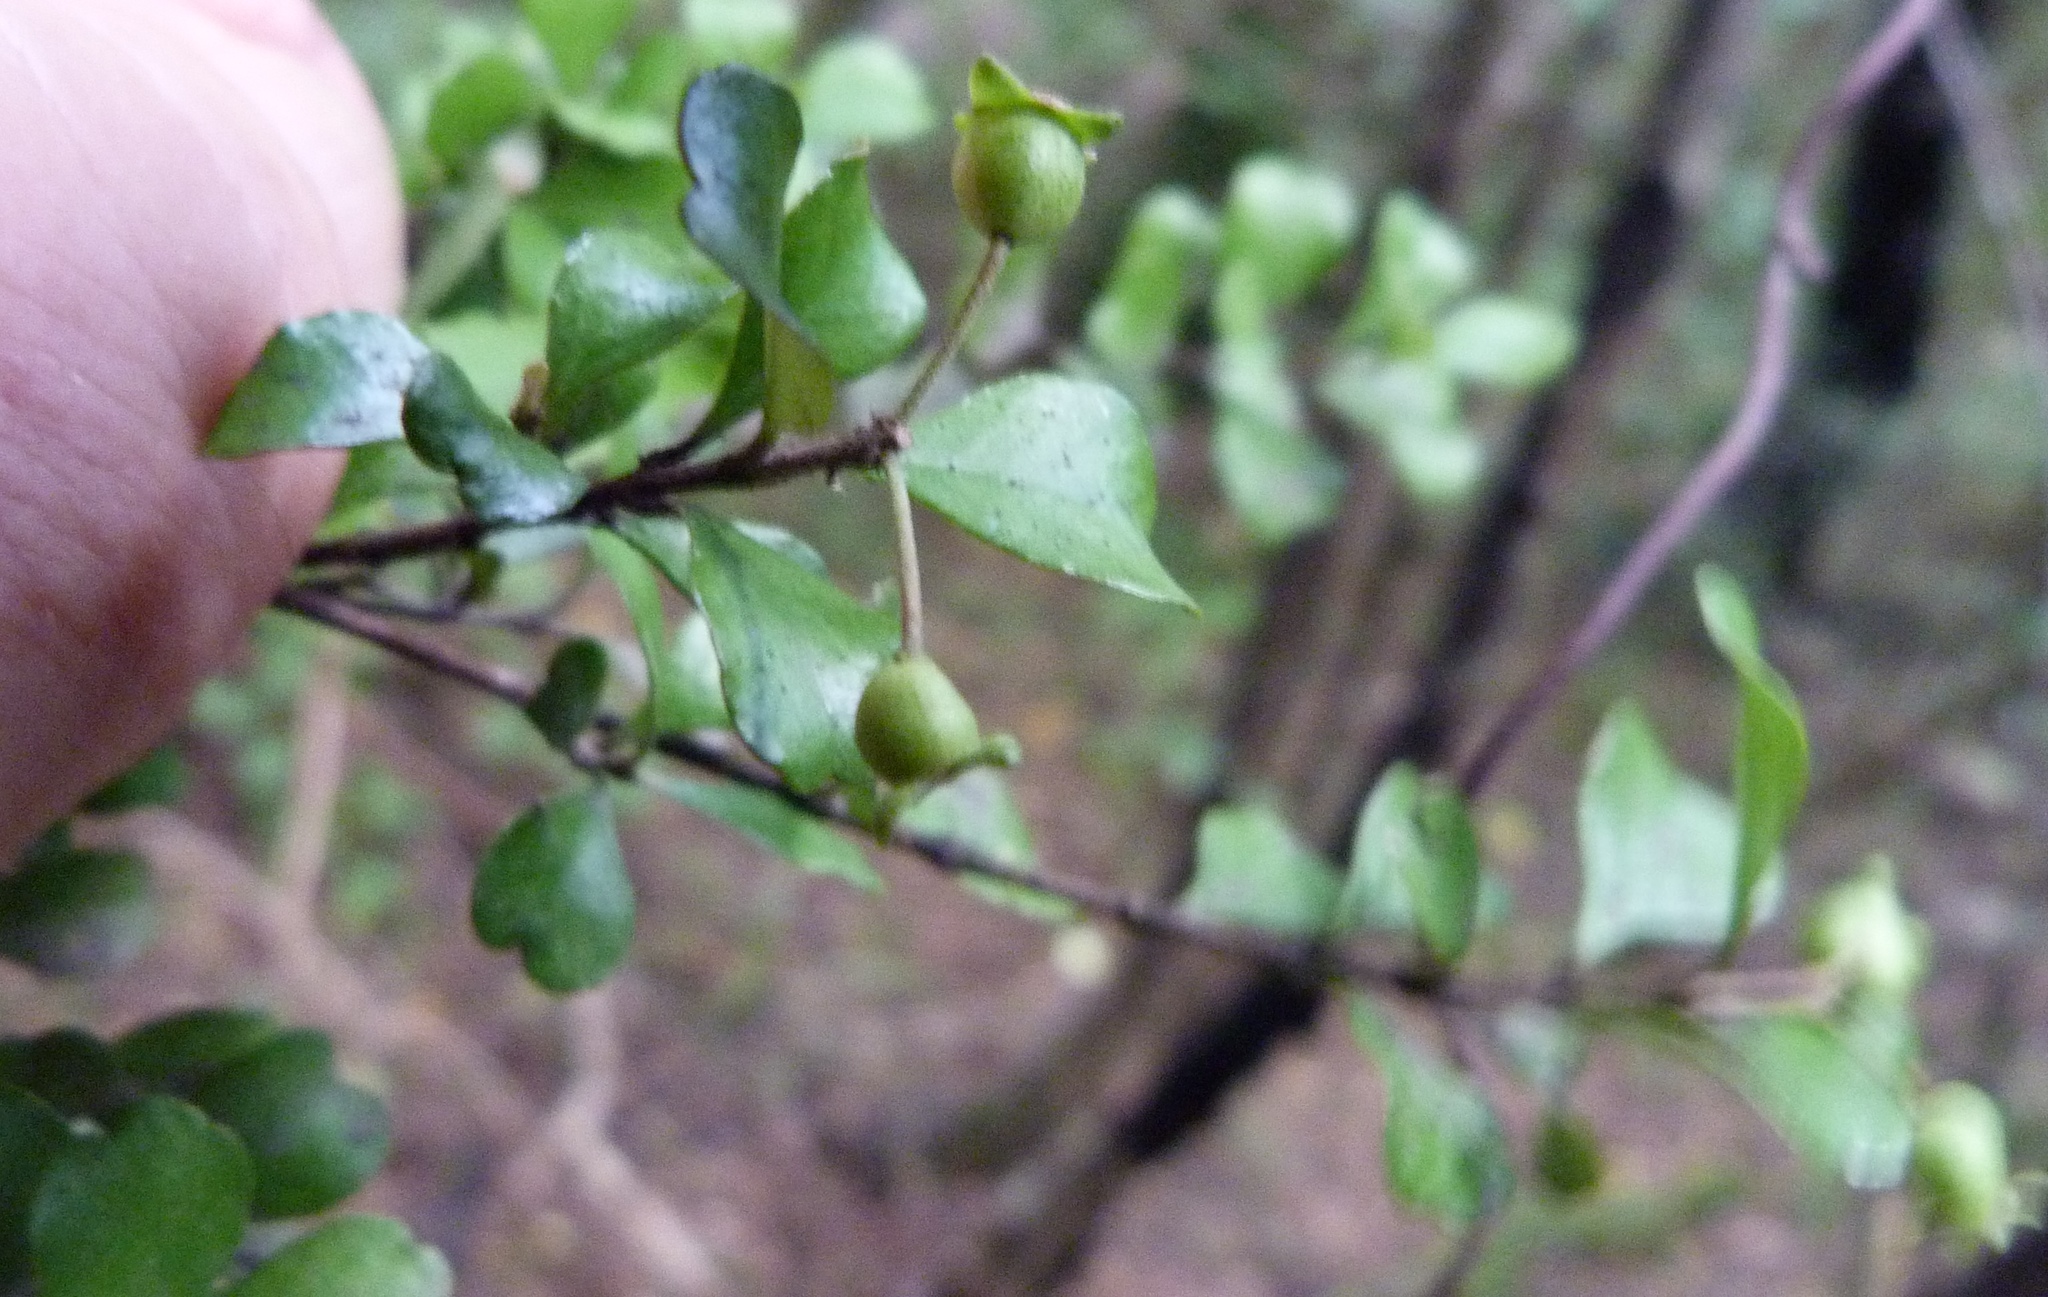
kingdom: Plantae
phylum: Tracheophyta
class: Magnoliopsida
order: Myrtales
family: Myrtaceae
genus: Lophomyrtus
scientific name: Lophomyrtus obcordata
